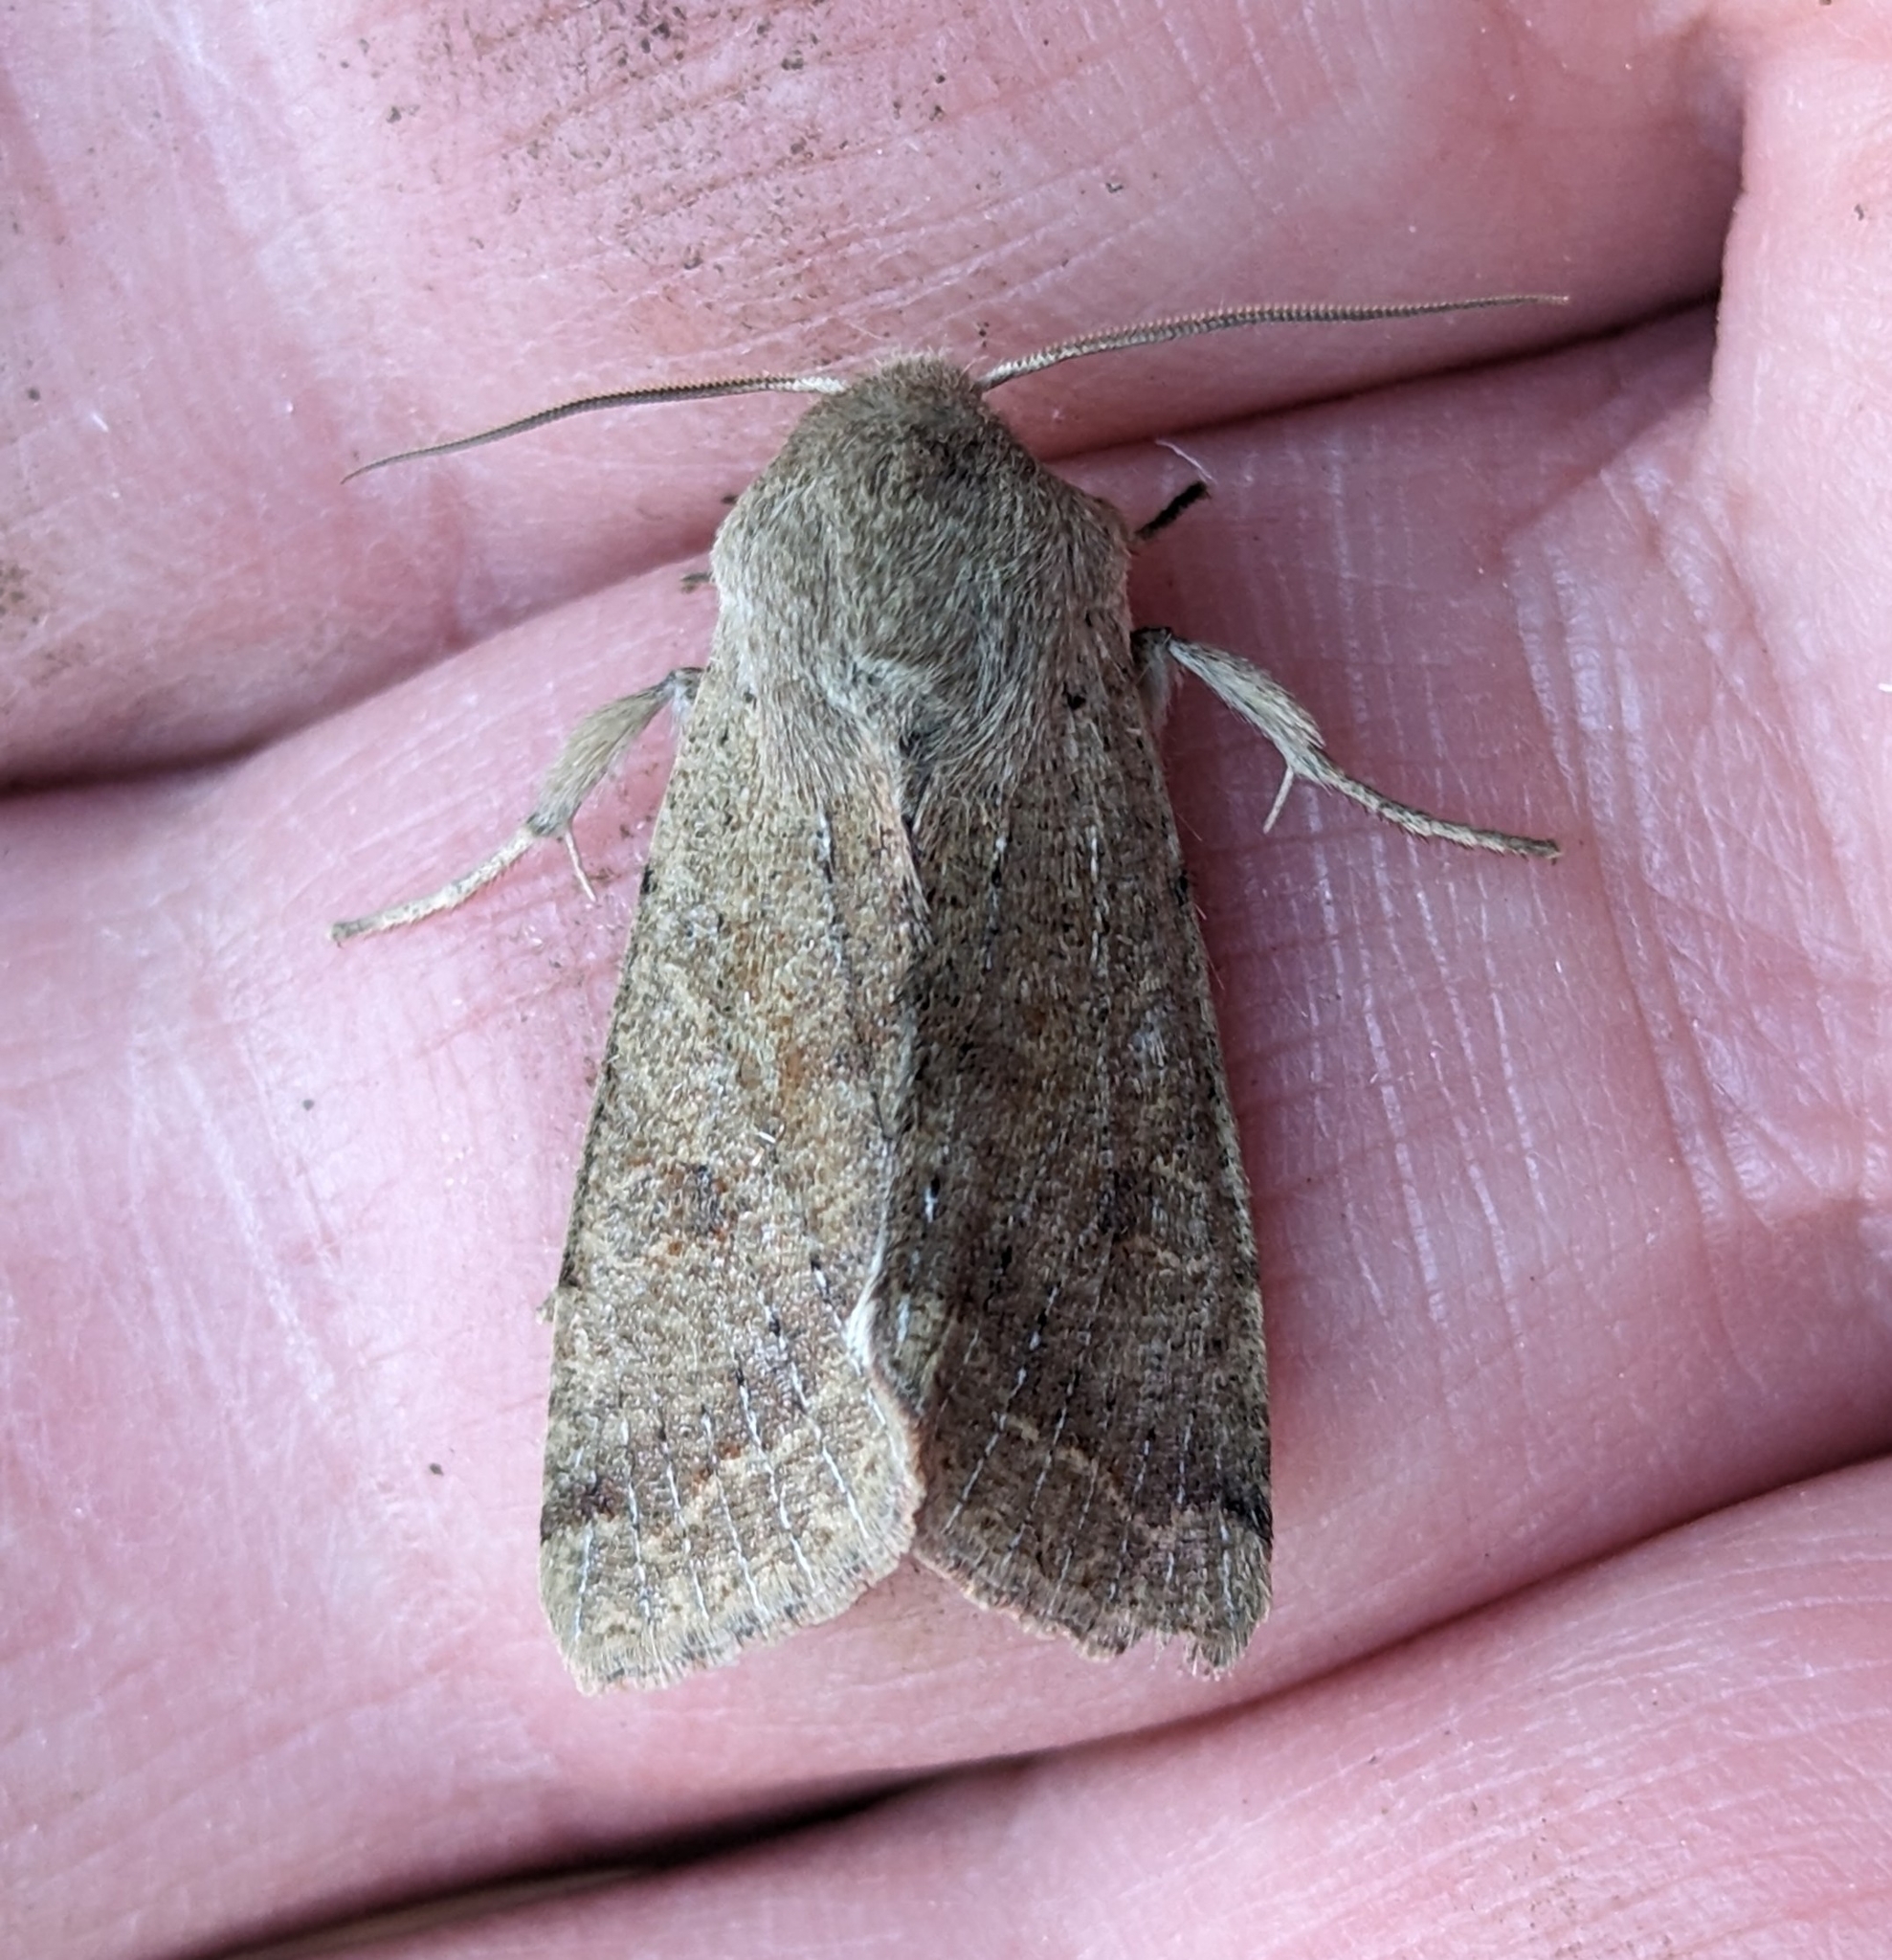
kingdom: Animalia
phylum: Arthropoda
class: Insecta
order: Lepidoptera
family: Noctuidae
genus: Orthosia
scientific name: Orthosia pacifica
